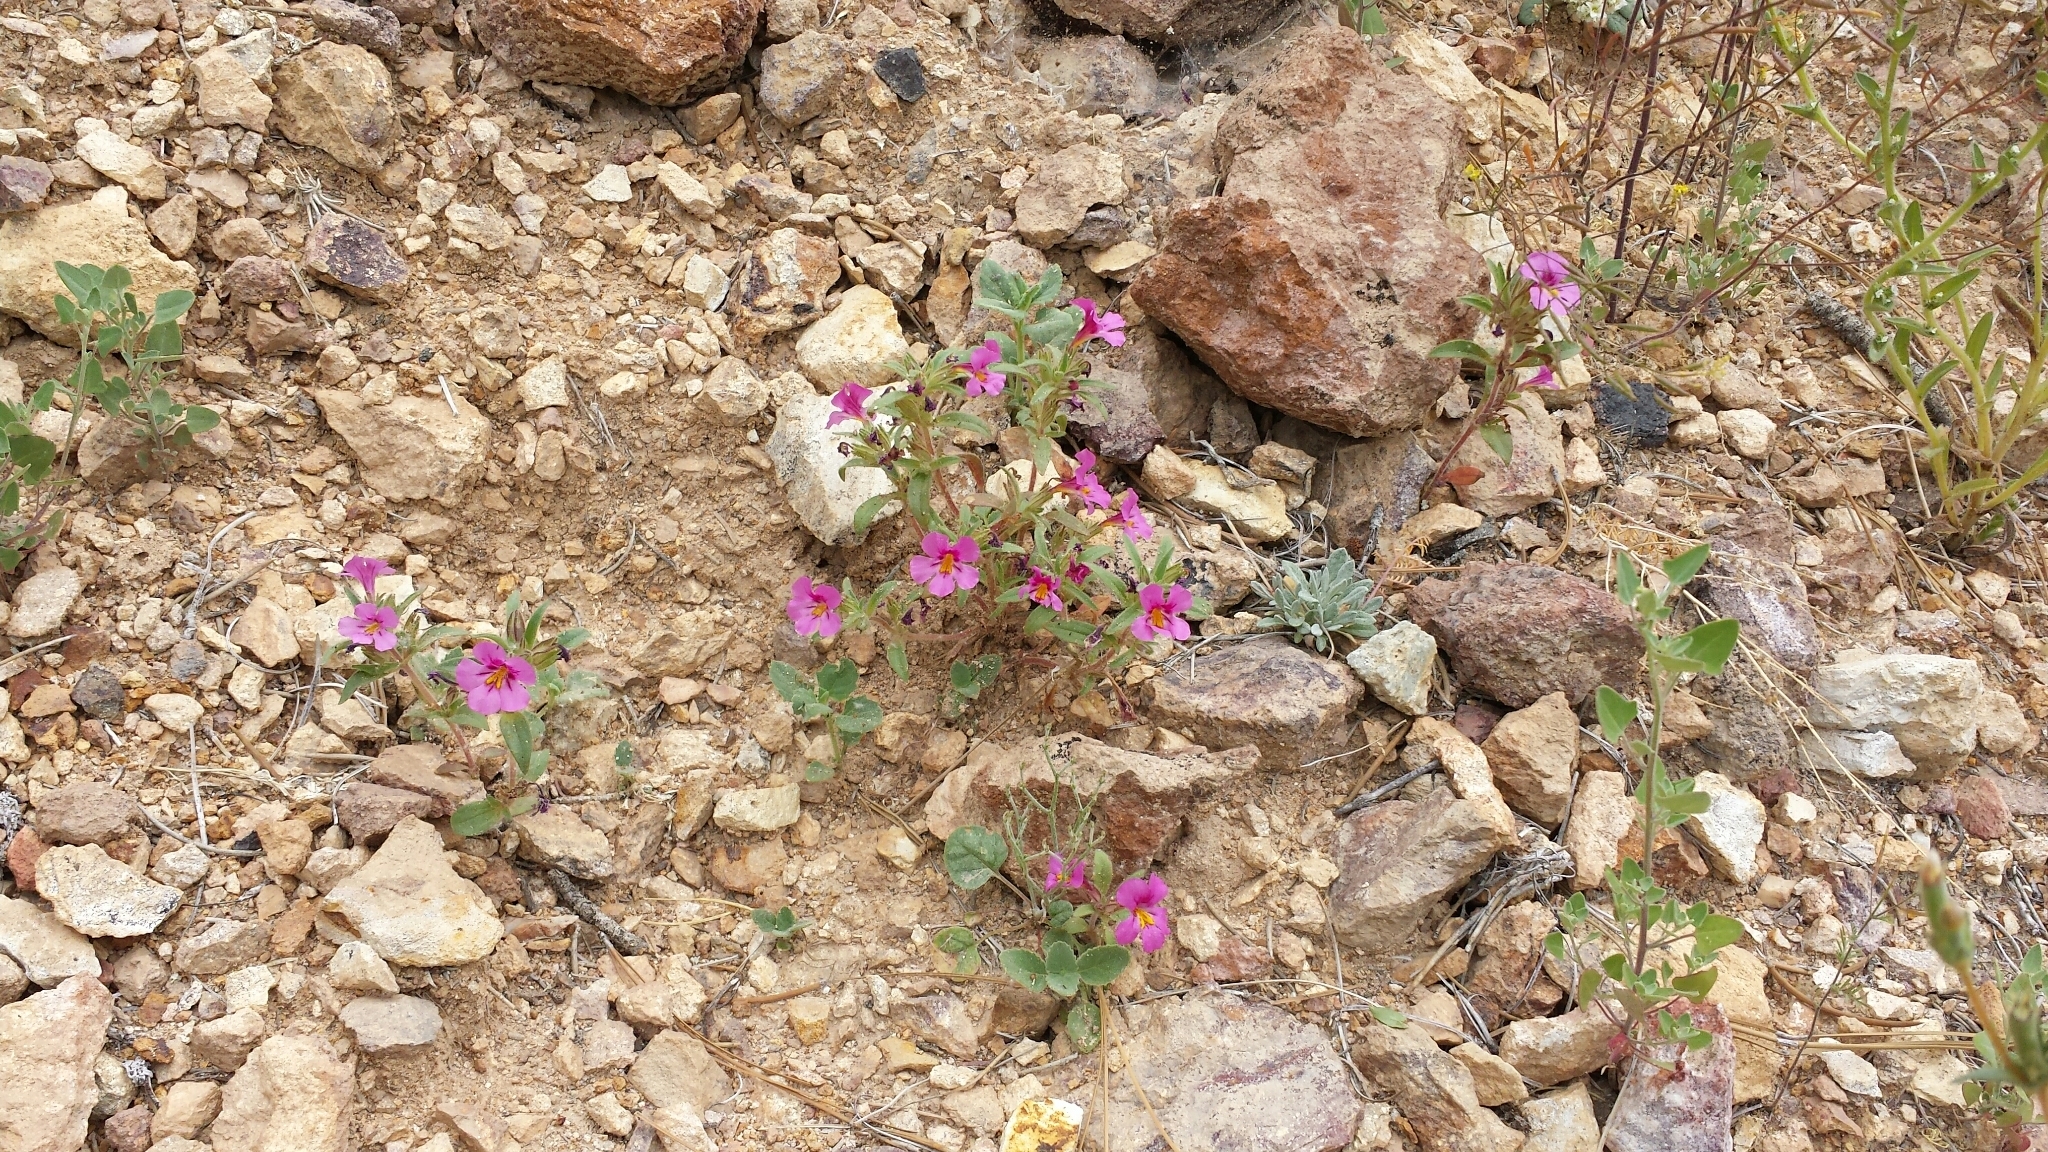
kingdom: Plantae
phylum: Tracheophyta
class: Magnoliopsida
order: Lamiales
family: Phrymaceae
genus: Diplacus
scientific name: Diplacus mephiticus
